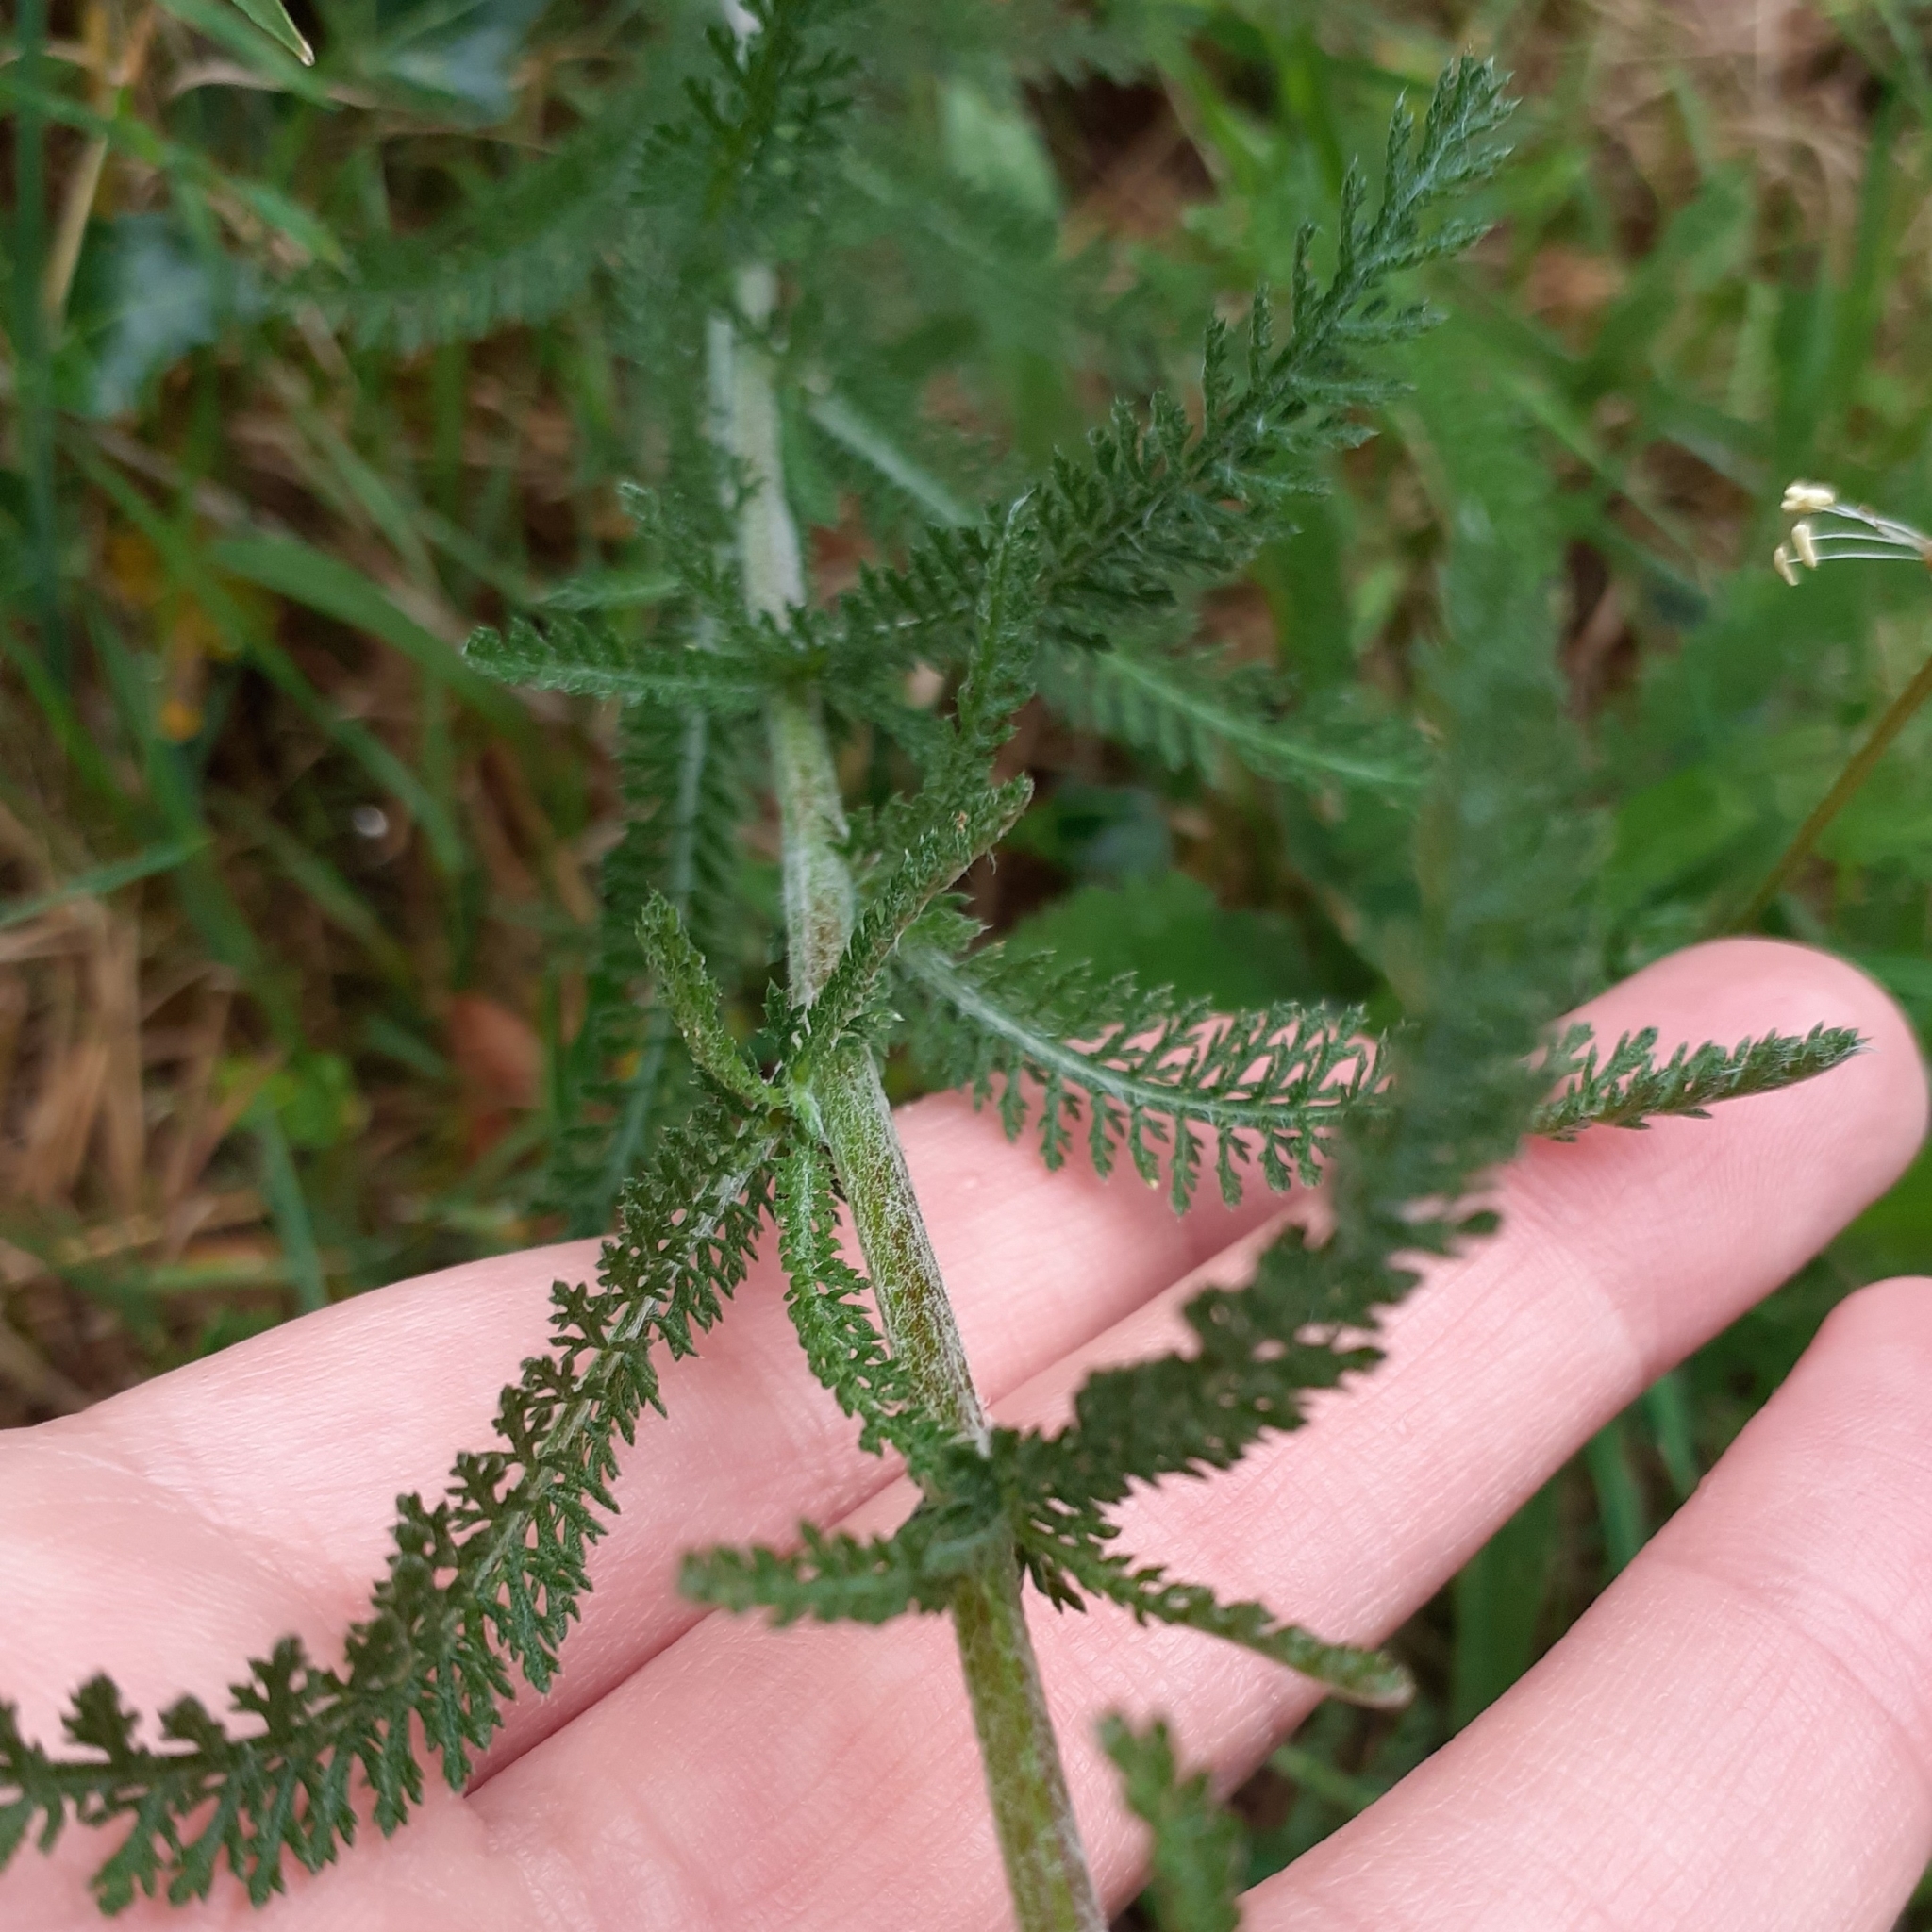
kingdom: Plantae
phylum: Tracheophyta
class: Magnoliopsida
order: Asterales
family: Asteraceae
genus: Achillea
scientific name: Achillea millefolium
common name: Yarrow
